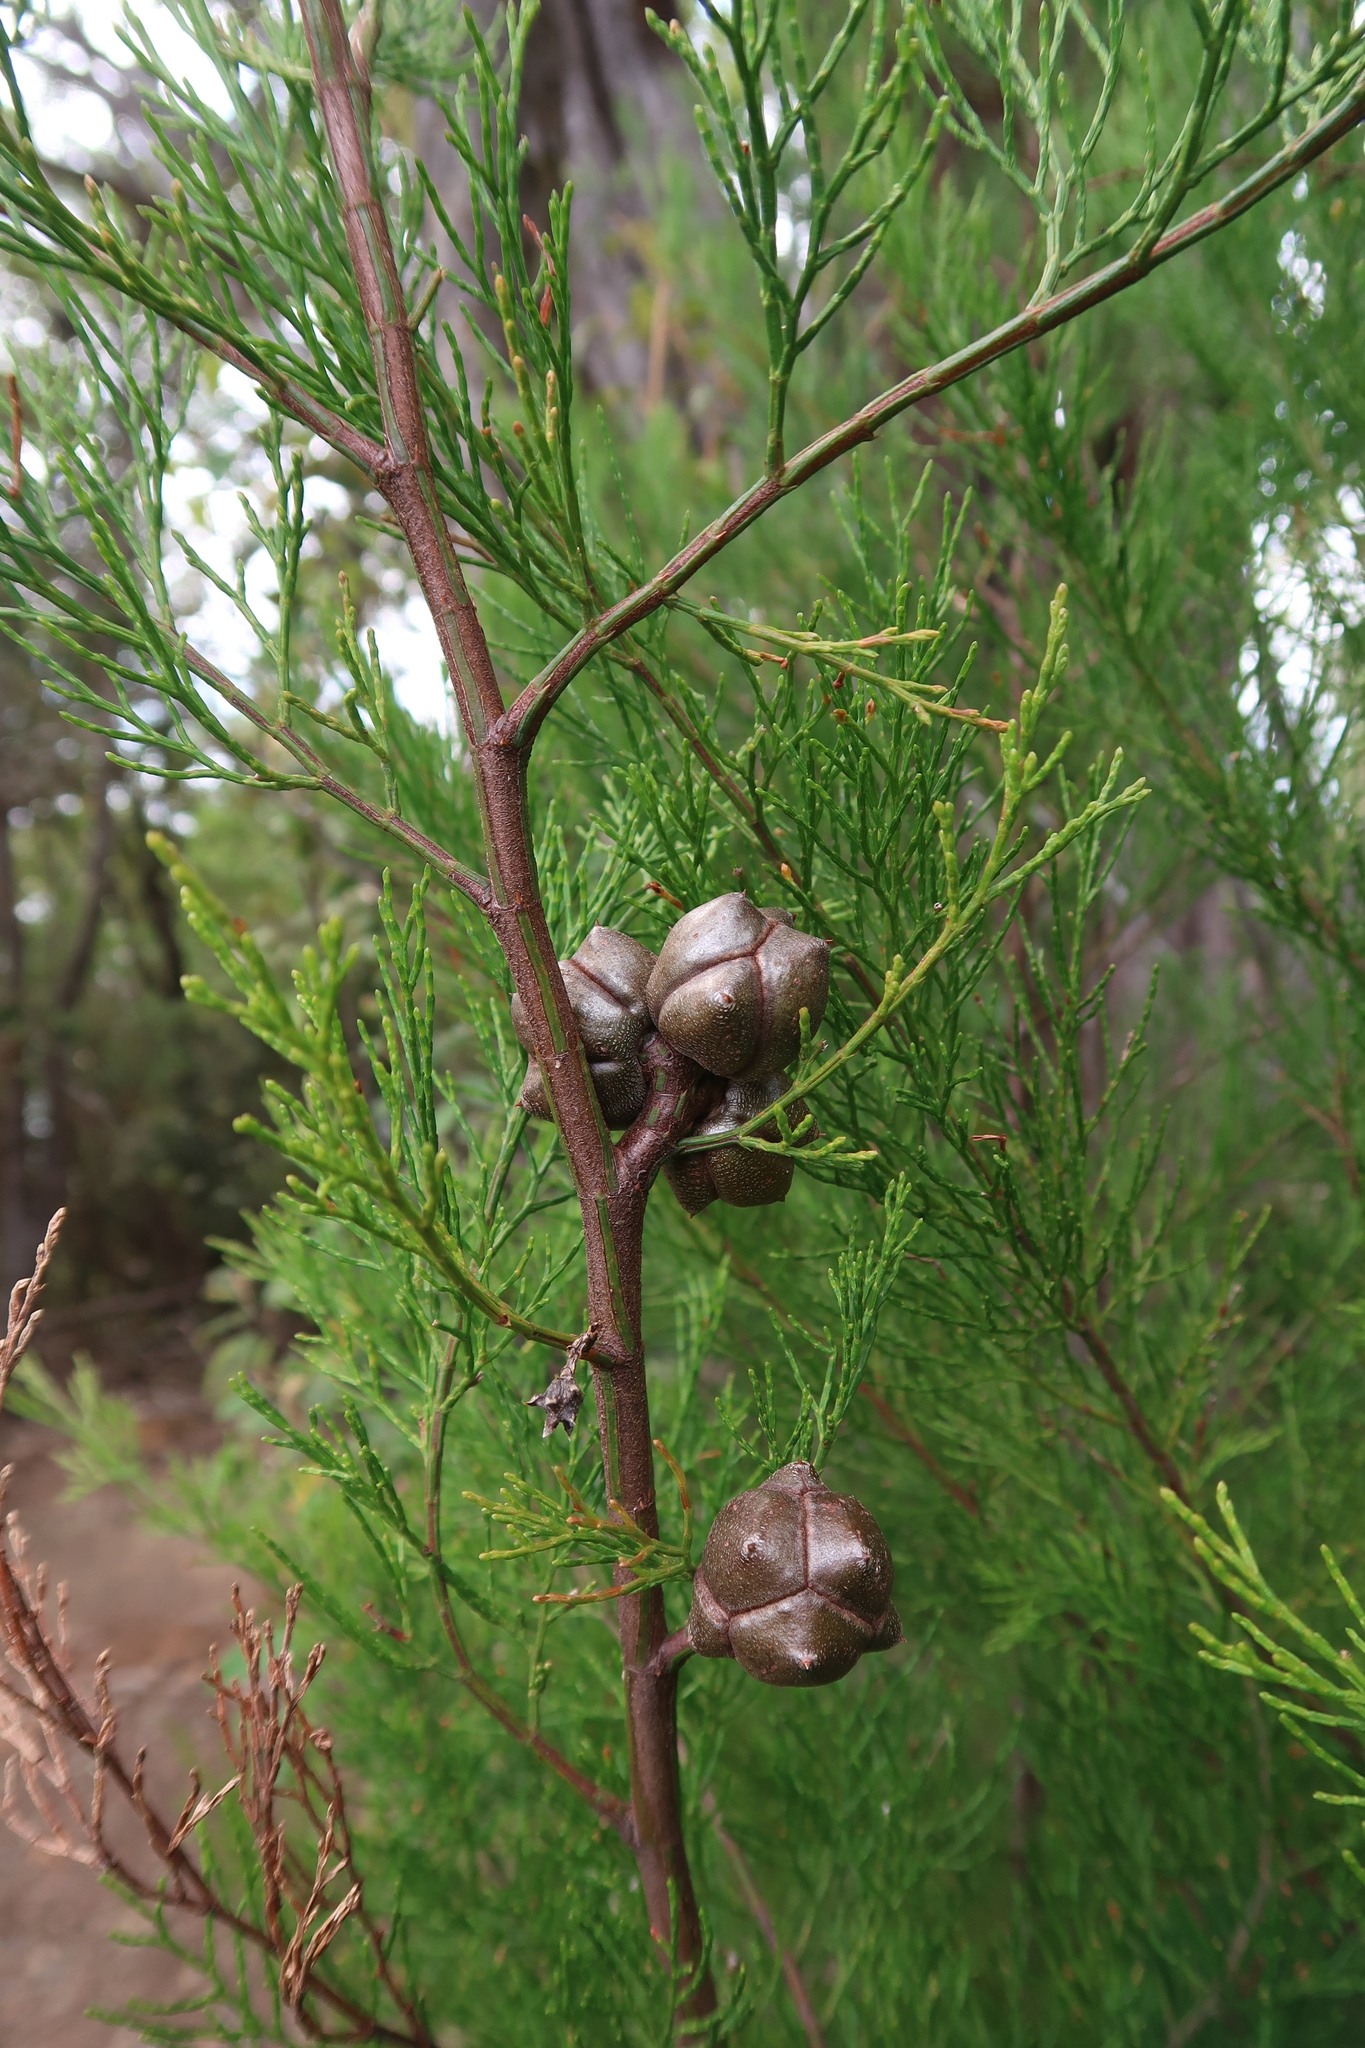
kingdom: Plantae
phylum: Tracheophyta
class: Pinopsida
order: Pinales
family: Cupressaceae
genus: Callitris
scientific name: Callitris rhomboidea
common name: Illawara mountain pine
